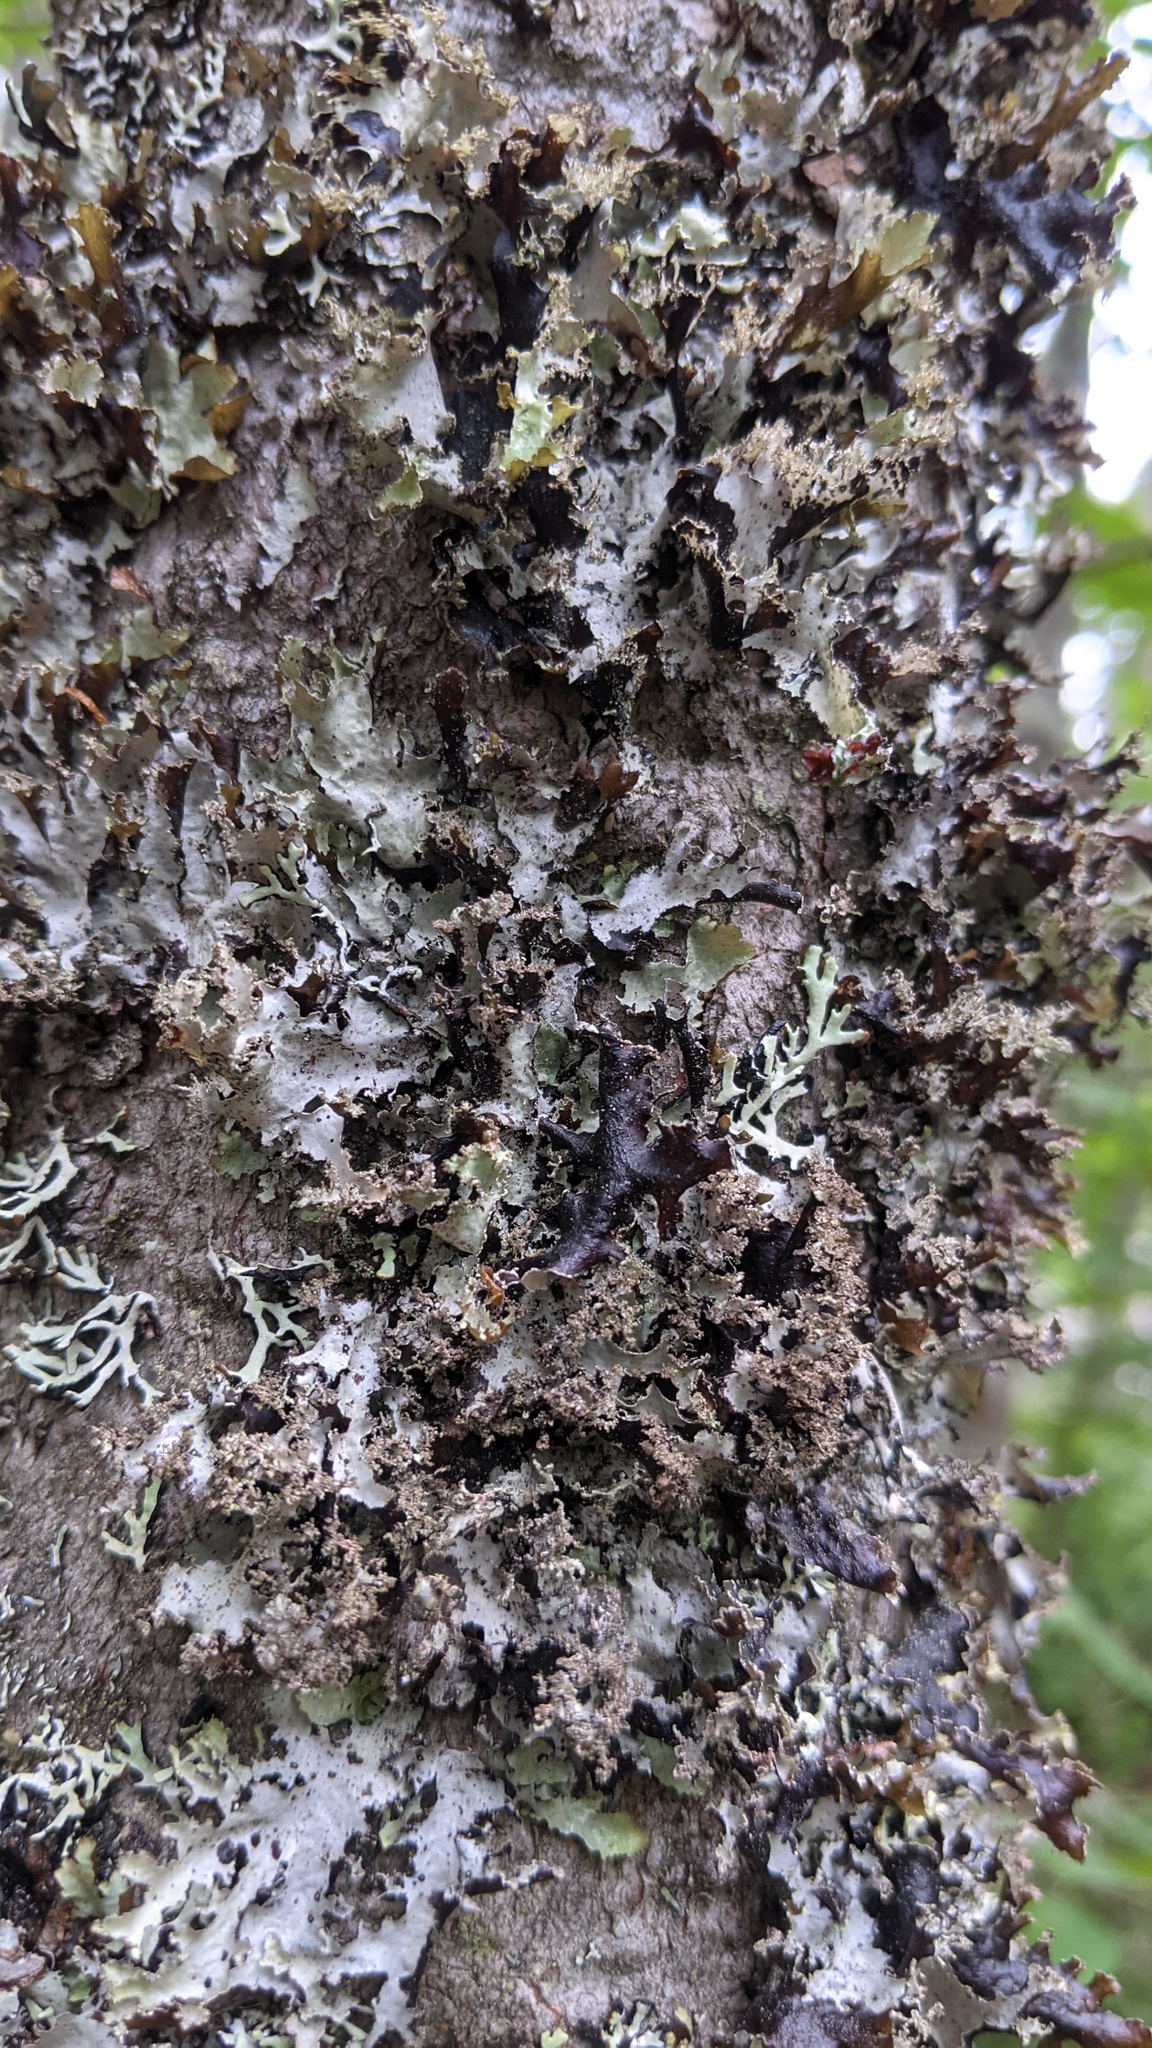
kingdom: Fungi
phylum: Ascomycota
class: Lecanoromycetes
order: Lecanorales
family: Parmeliaceae
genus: Platismatia
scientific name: Platismatia glauca
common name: Varied rag lichen
